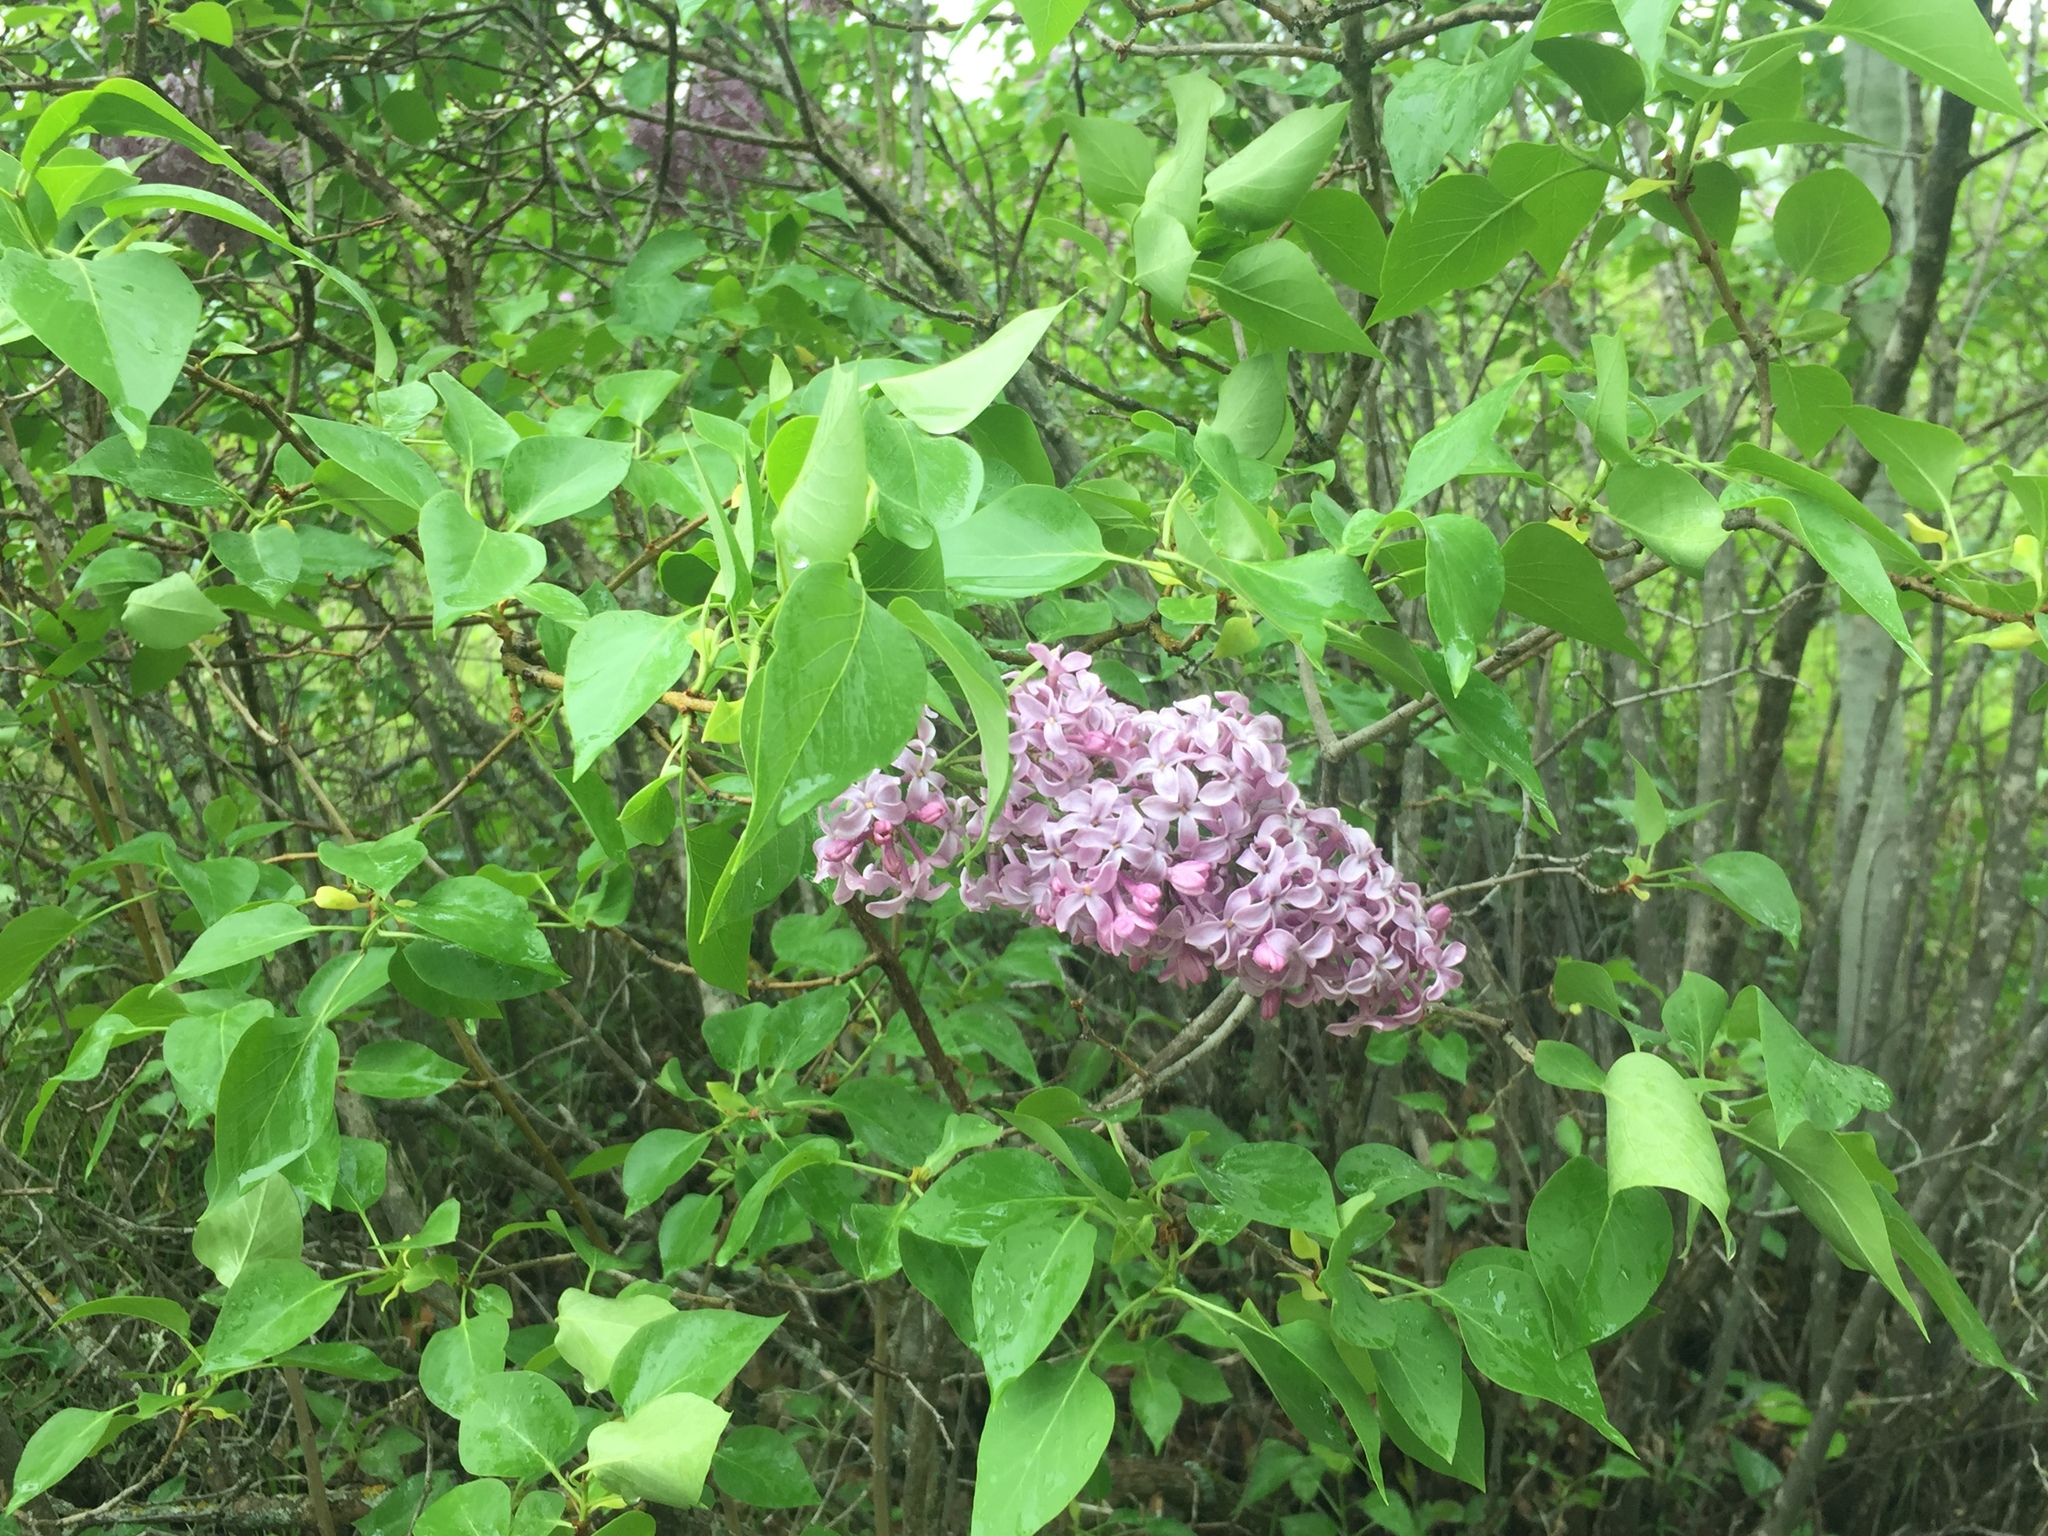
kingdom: Plantae
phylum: Tracheophyta
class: Magnoliopsida
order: Lamiales
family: Oleaceae
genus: Syringa
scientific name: Syringa vulgaris
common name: Common lilac
